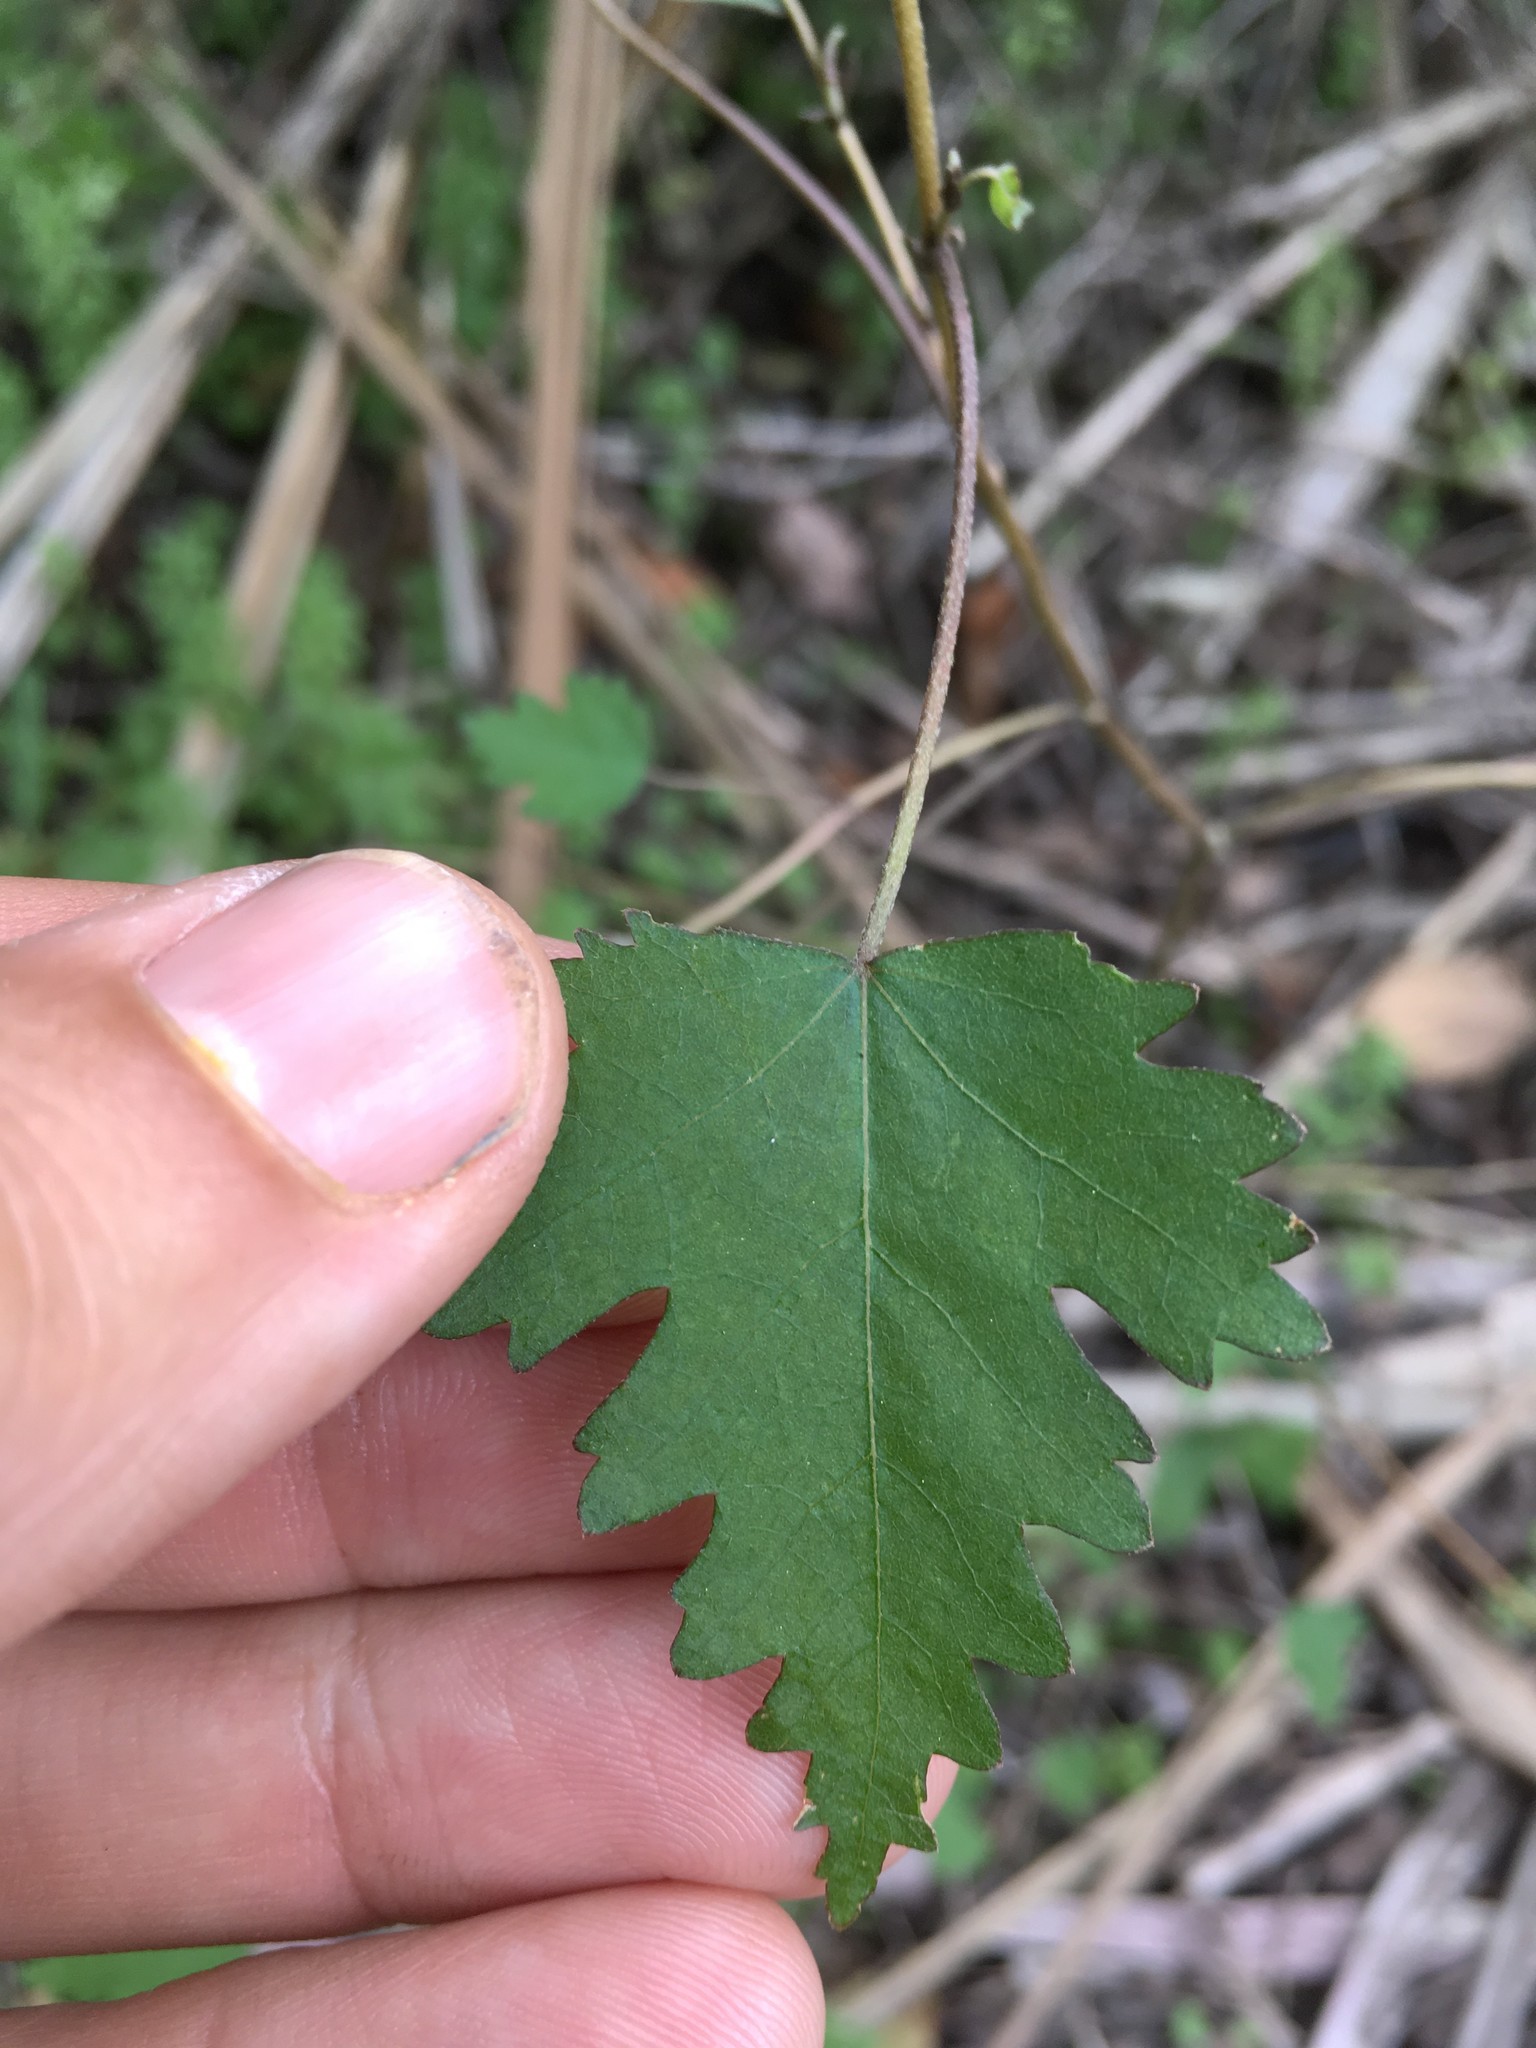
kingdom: Plantae
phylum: Tracheophyta
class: Magnoliopsida
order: Malvales
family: Malvaceae
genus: Plagianthus
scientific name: Plagianthus regius
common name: Manatu
